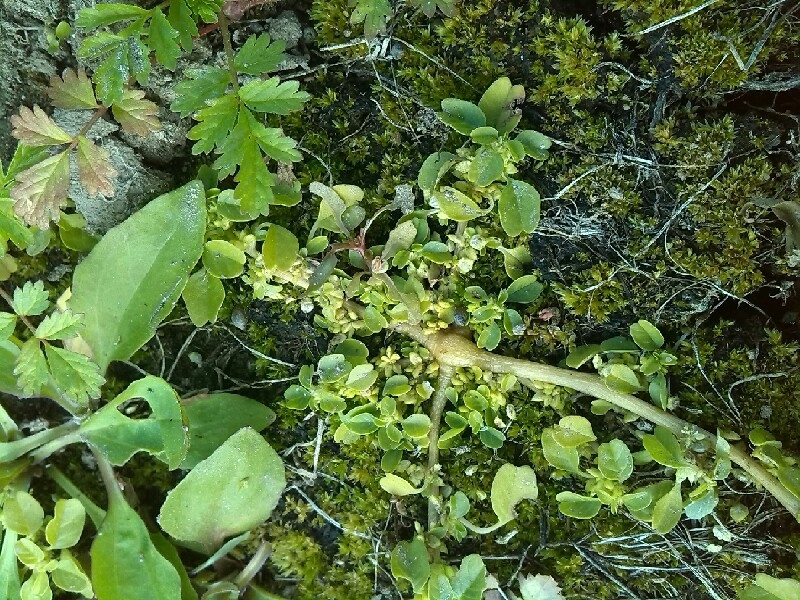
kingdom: Plantae
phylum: Tracheophyta
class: Magnoliopsida
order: Caryophyllales
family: Amaranthaceae
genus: Amaranthus
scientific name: Amaranthus blitum
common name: Purple amaranth
